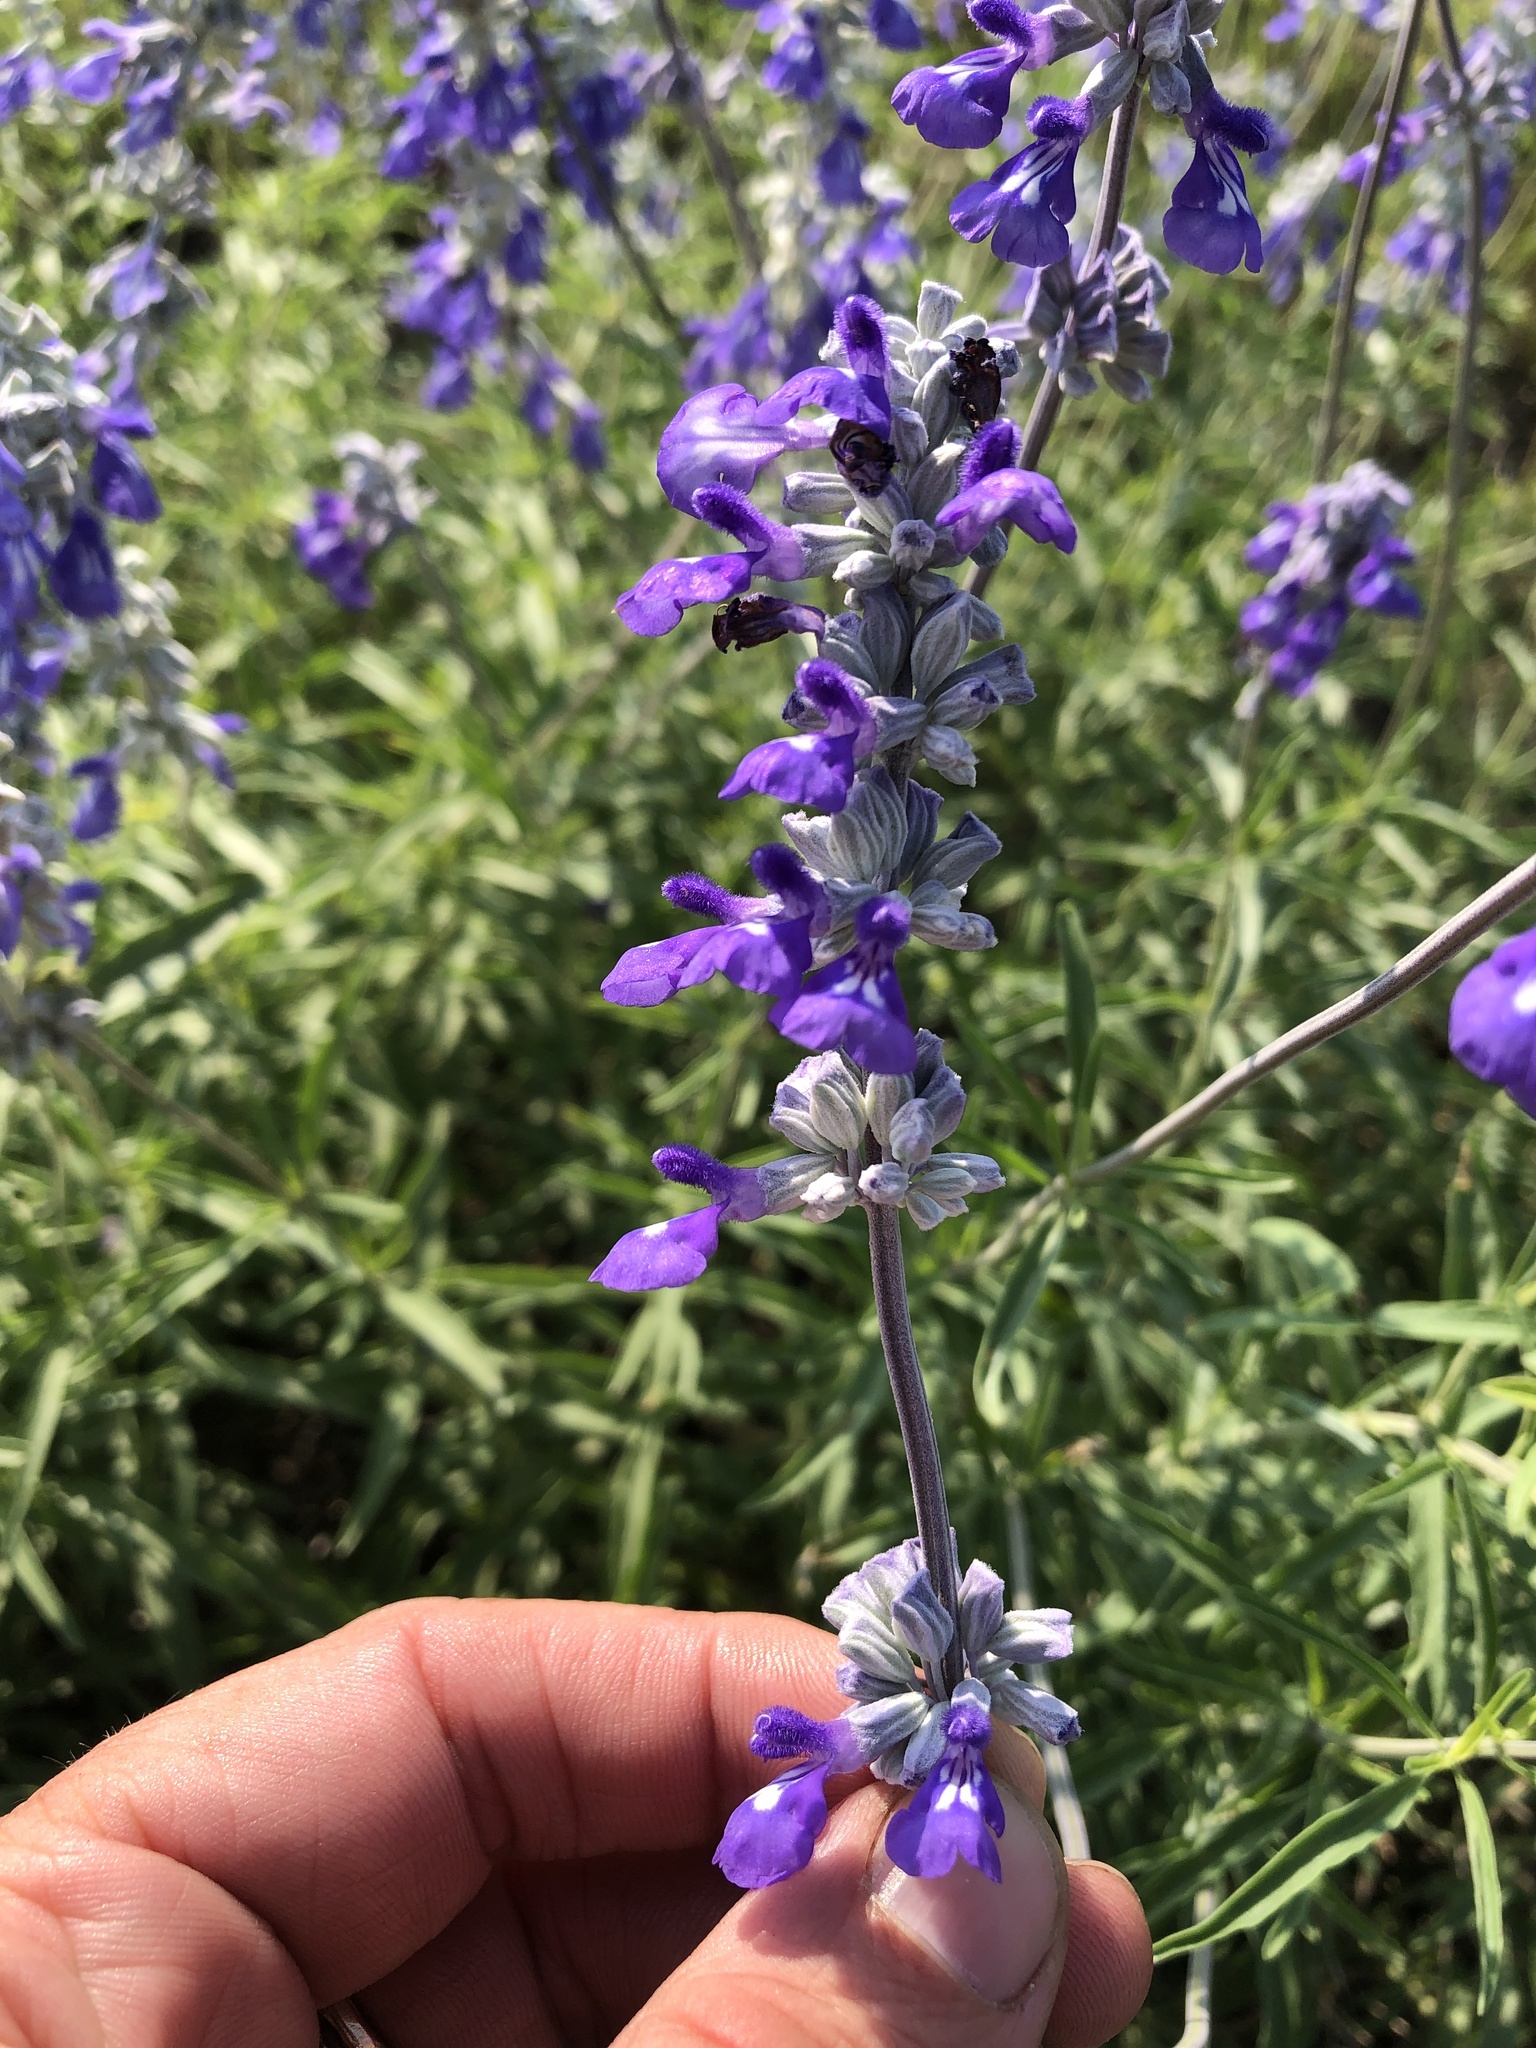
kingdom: Plantae
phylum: Tracheophyta
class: Magnoliopsida
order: Lamiales
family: Lamiaceae
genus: Salvia
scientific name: Salvia farinacea
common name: Mealy sage
